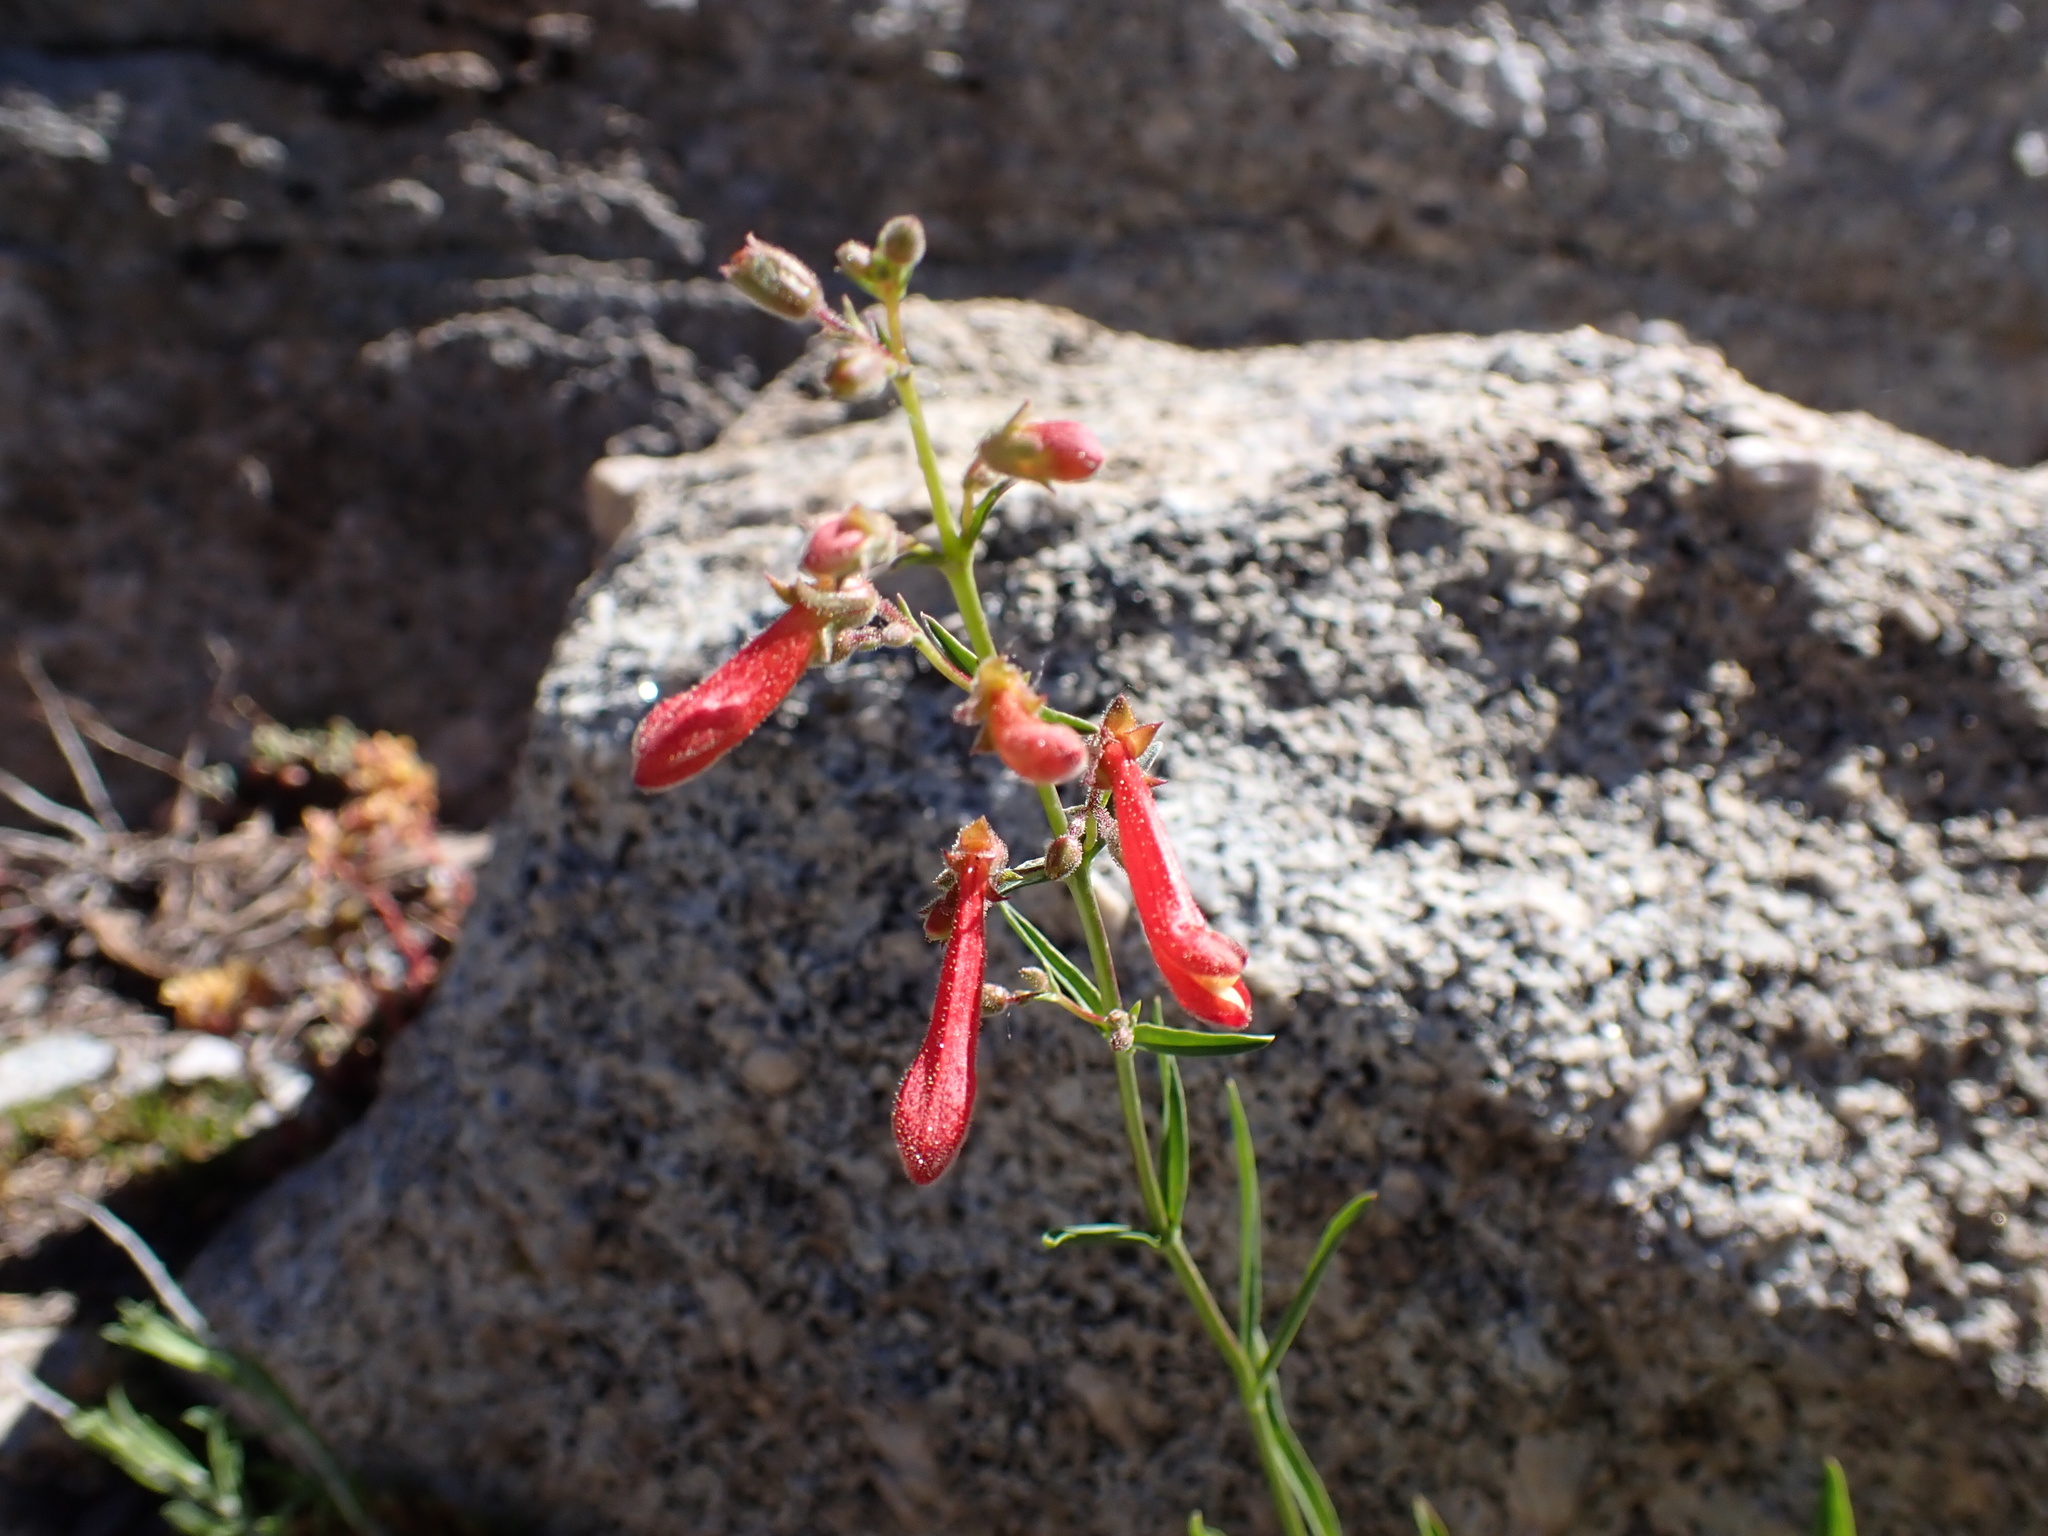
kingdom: Plantae
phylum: Tracheophyta
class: Magnoliopsida
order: Lamiales
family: Plantaginaceae
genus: Penstemon
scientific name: Penstemon rostriflorus
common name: Bridges's penstemon
